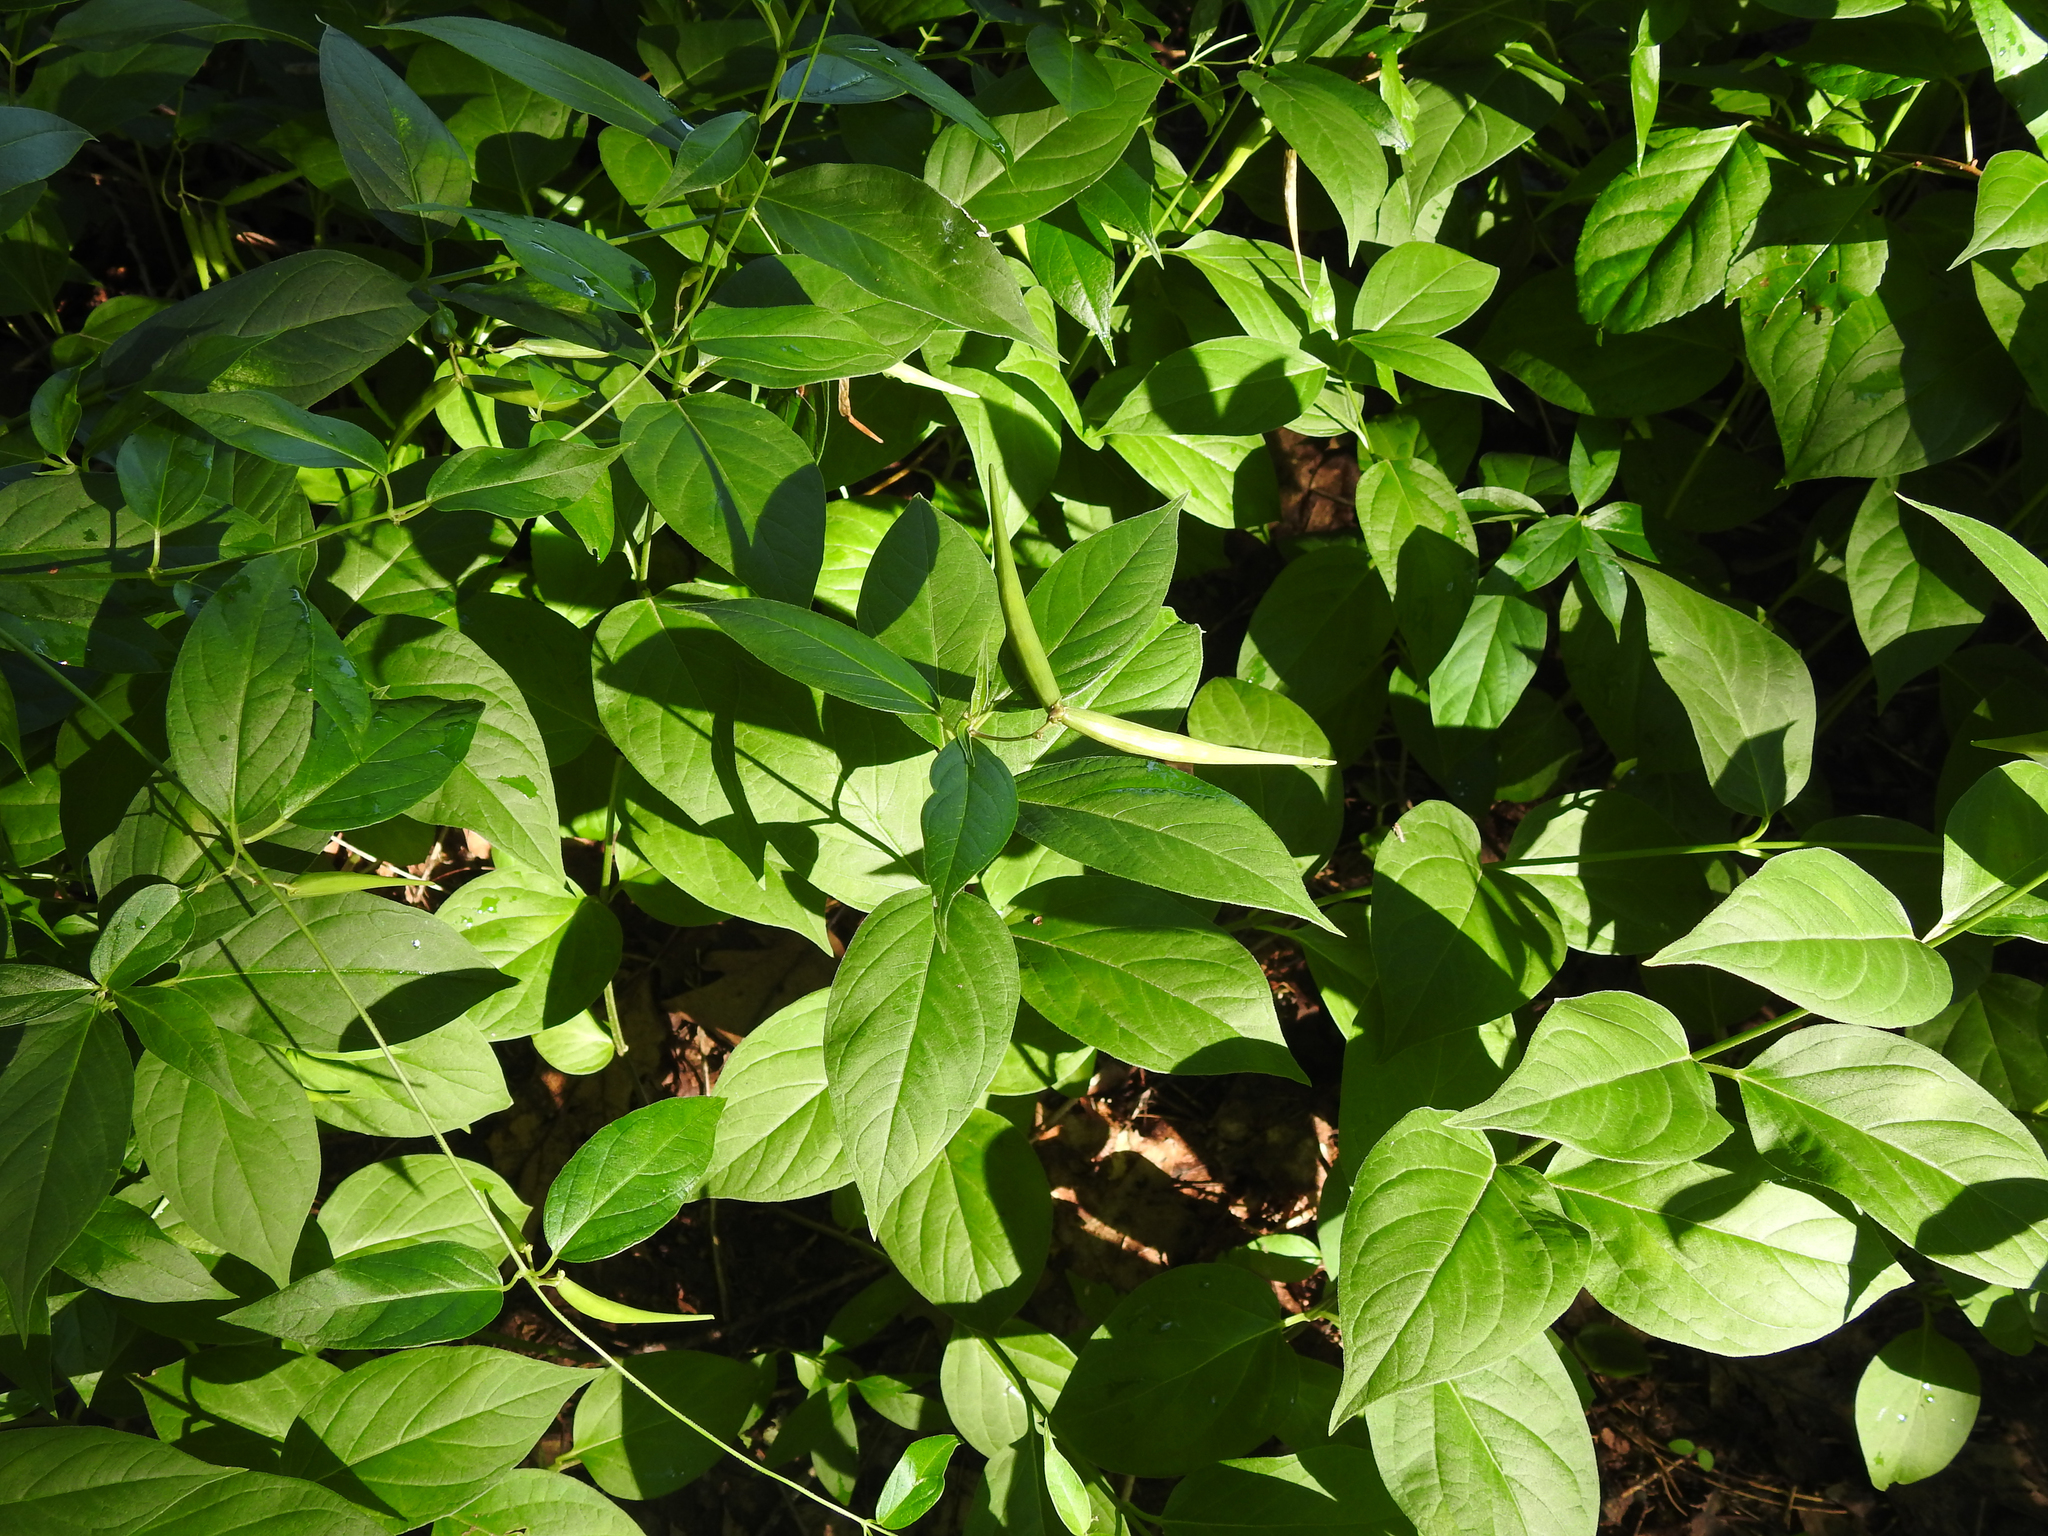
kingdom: Plantae
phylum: Tracheophyta
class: Magnoliopsida
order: Gentianales
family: Apocynaceae
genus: Vincetoxicum
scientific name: Vincetoxicum nigrum
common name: Black swallow-wort
